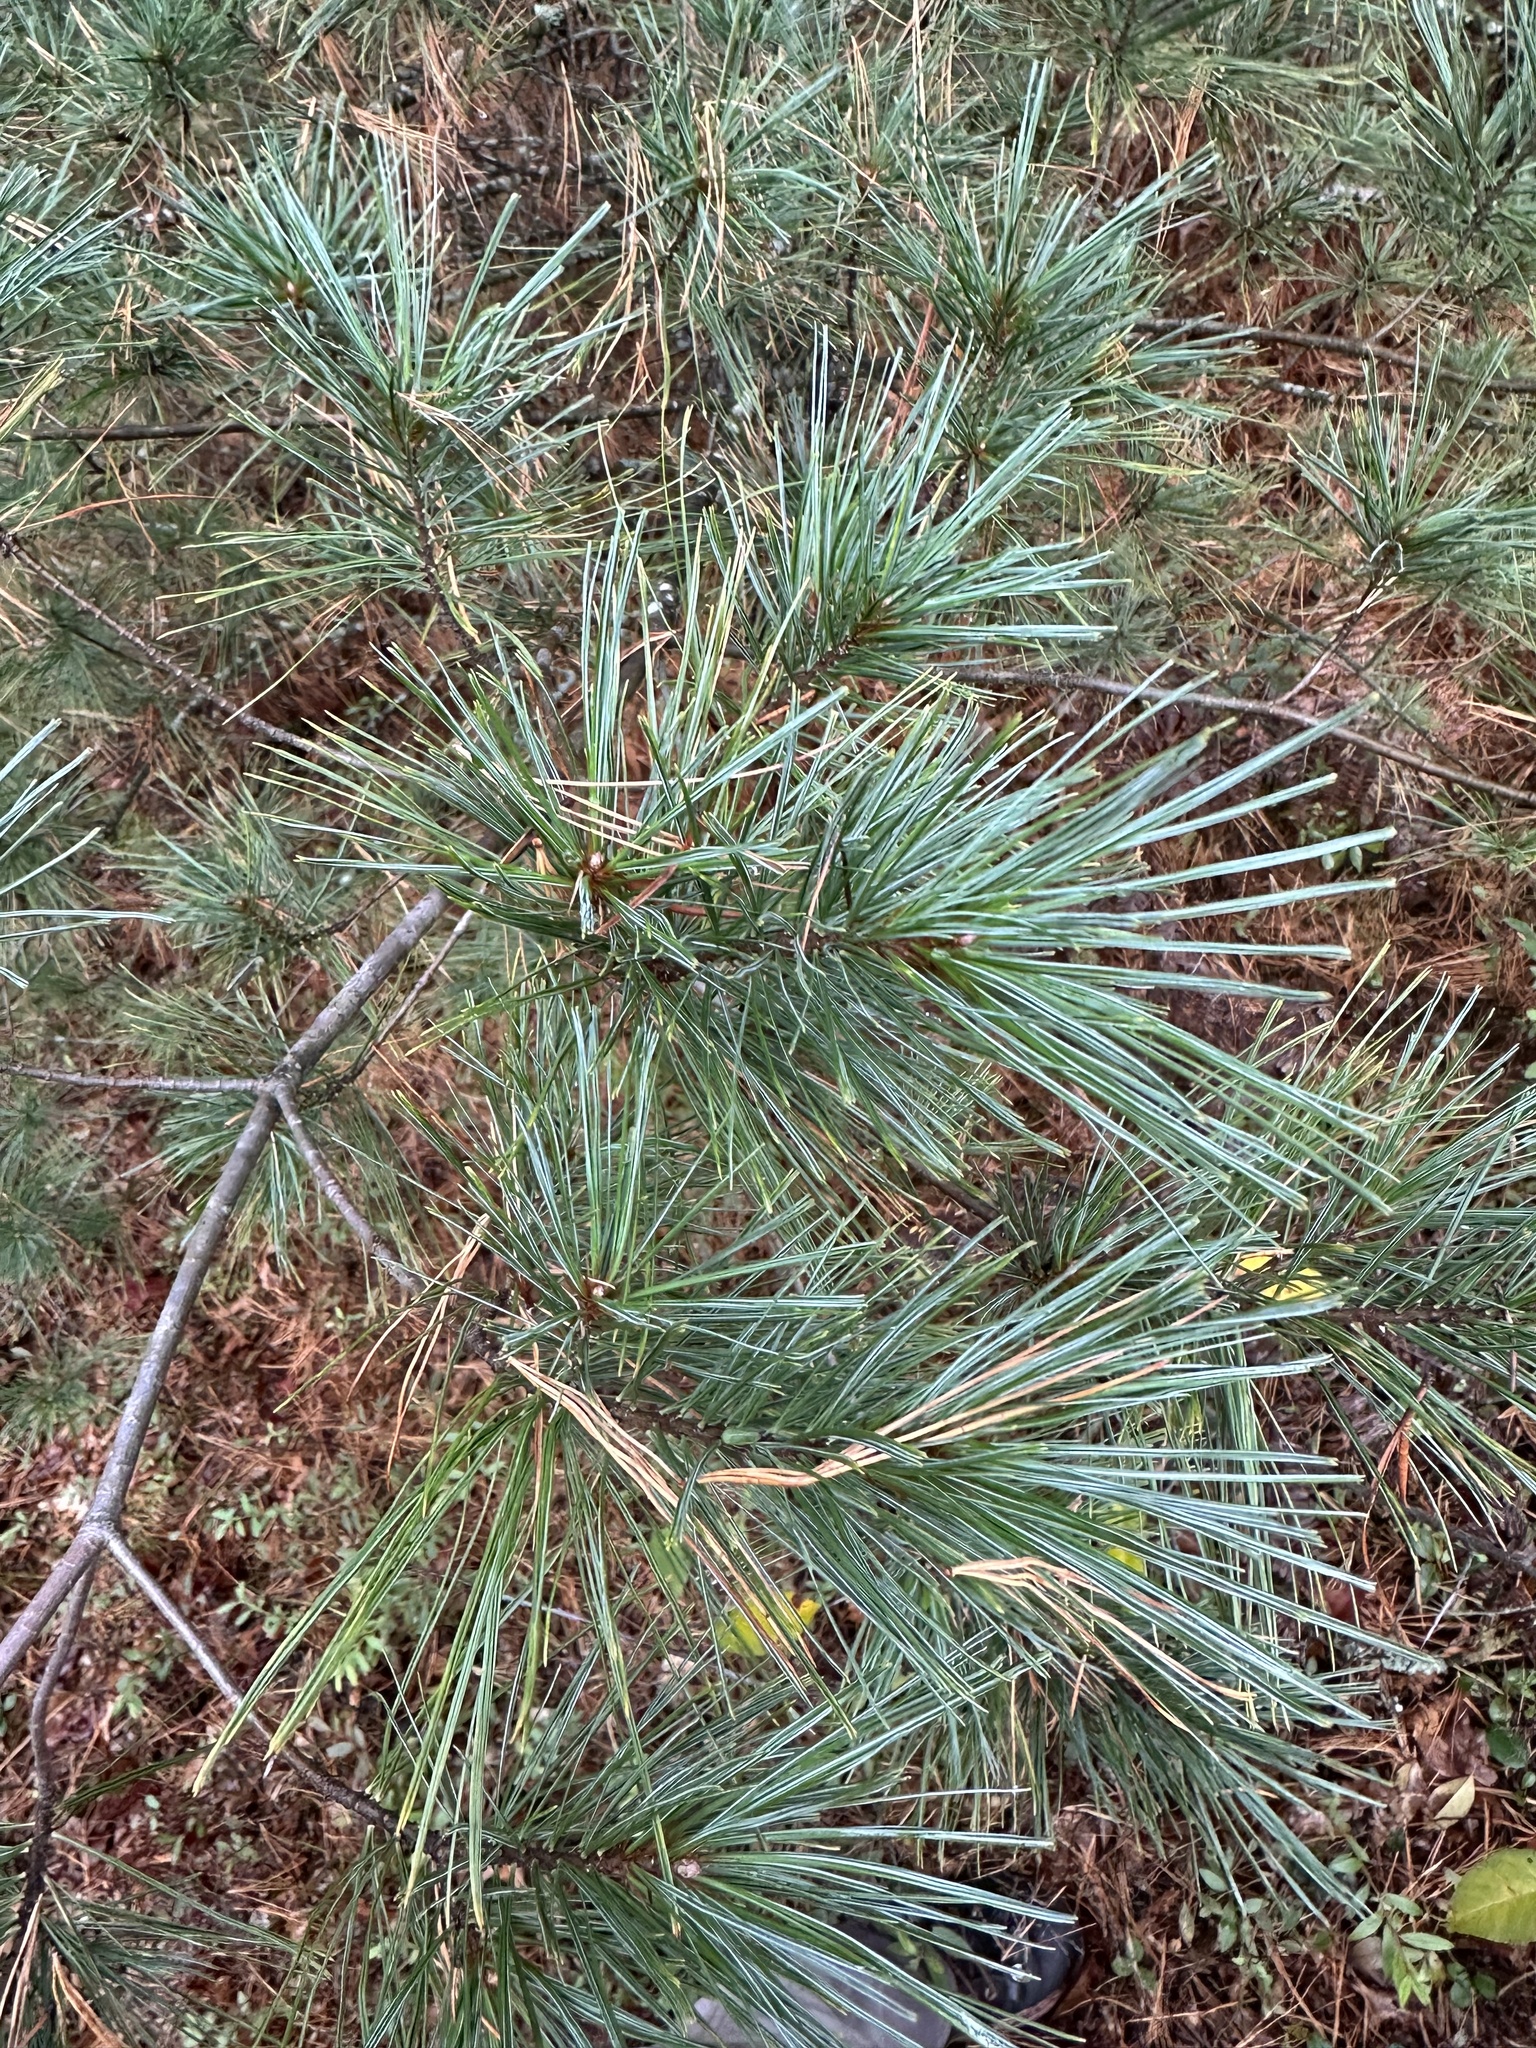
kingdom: Plantae
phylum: Tracheophyta
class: Pinopsida
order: Pinales
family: Pinaceae
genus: Pinus
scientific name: Pinus strobus
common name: Weymouth pine
